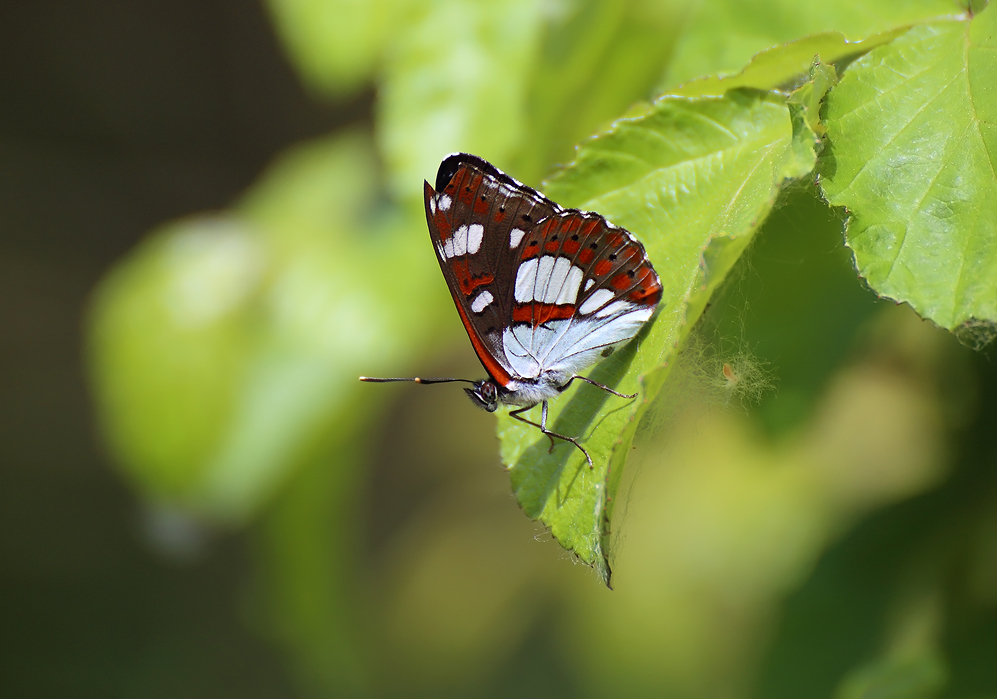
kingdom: Animalia
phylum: Arthropoda
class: Insecta
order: Lepidoptera
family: Nymphalidae
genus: Limenitis
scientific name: Limenitis reducta
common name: Southern white admiral
